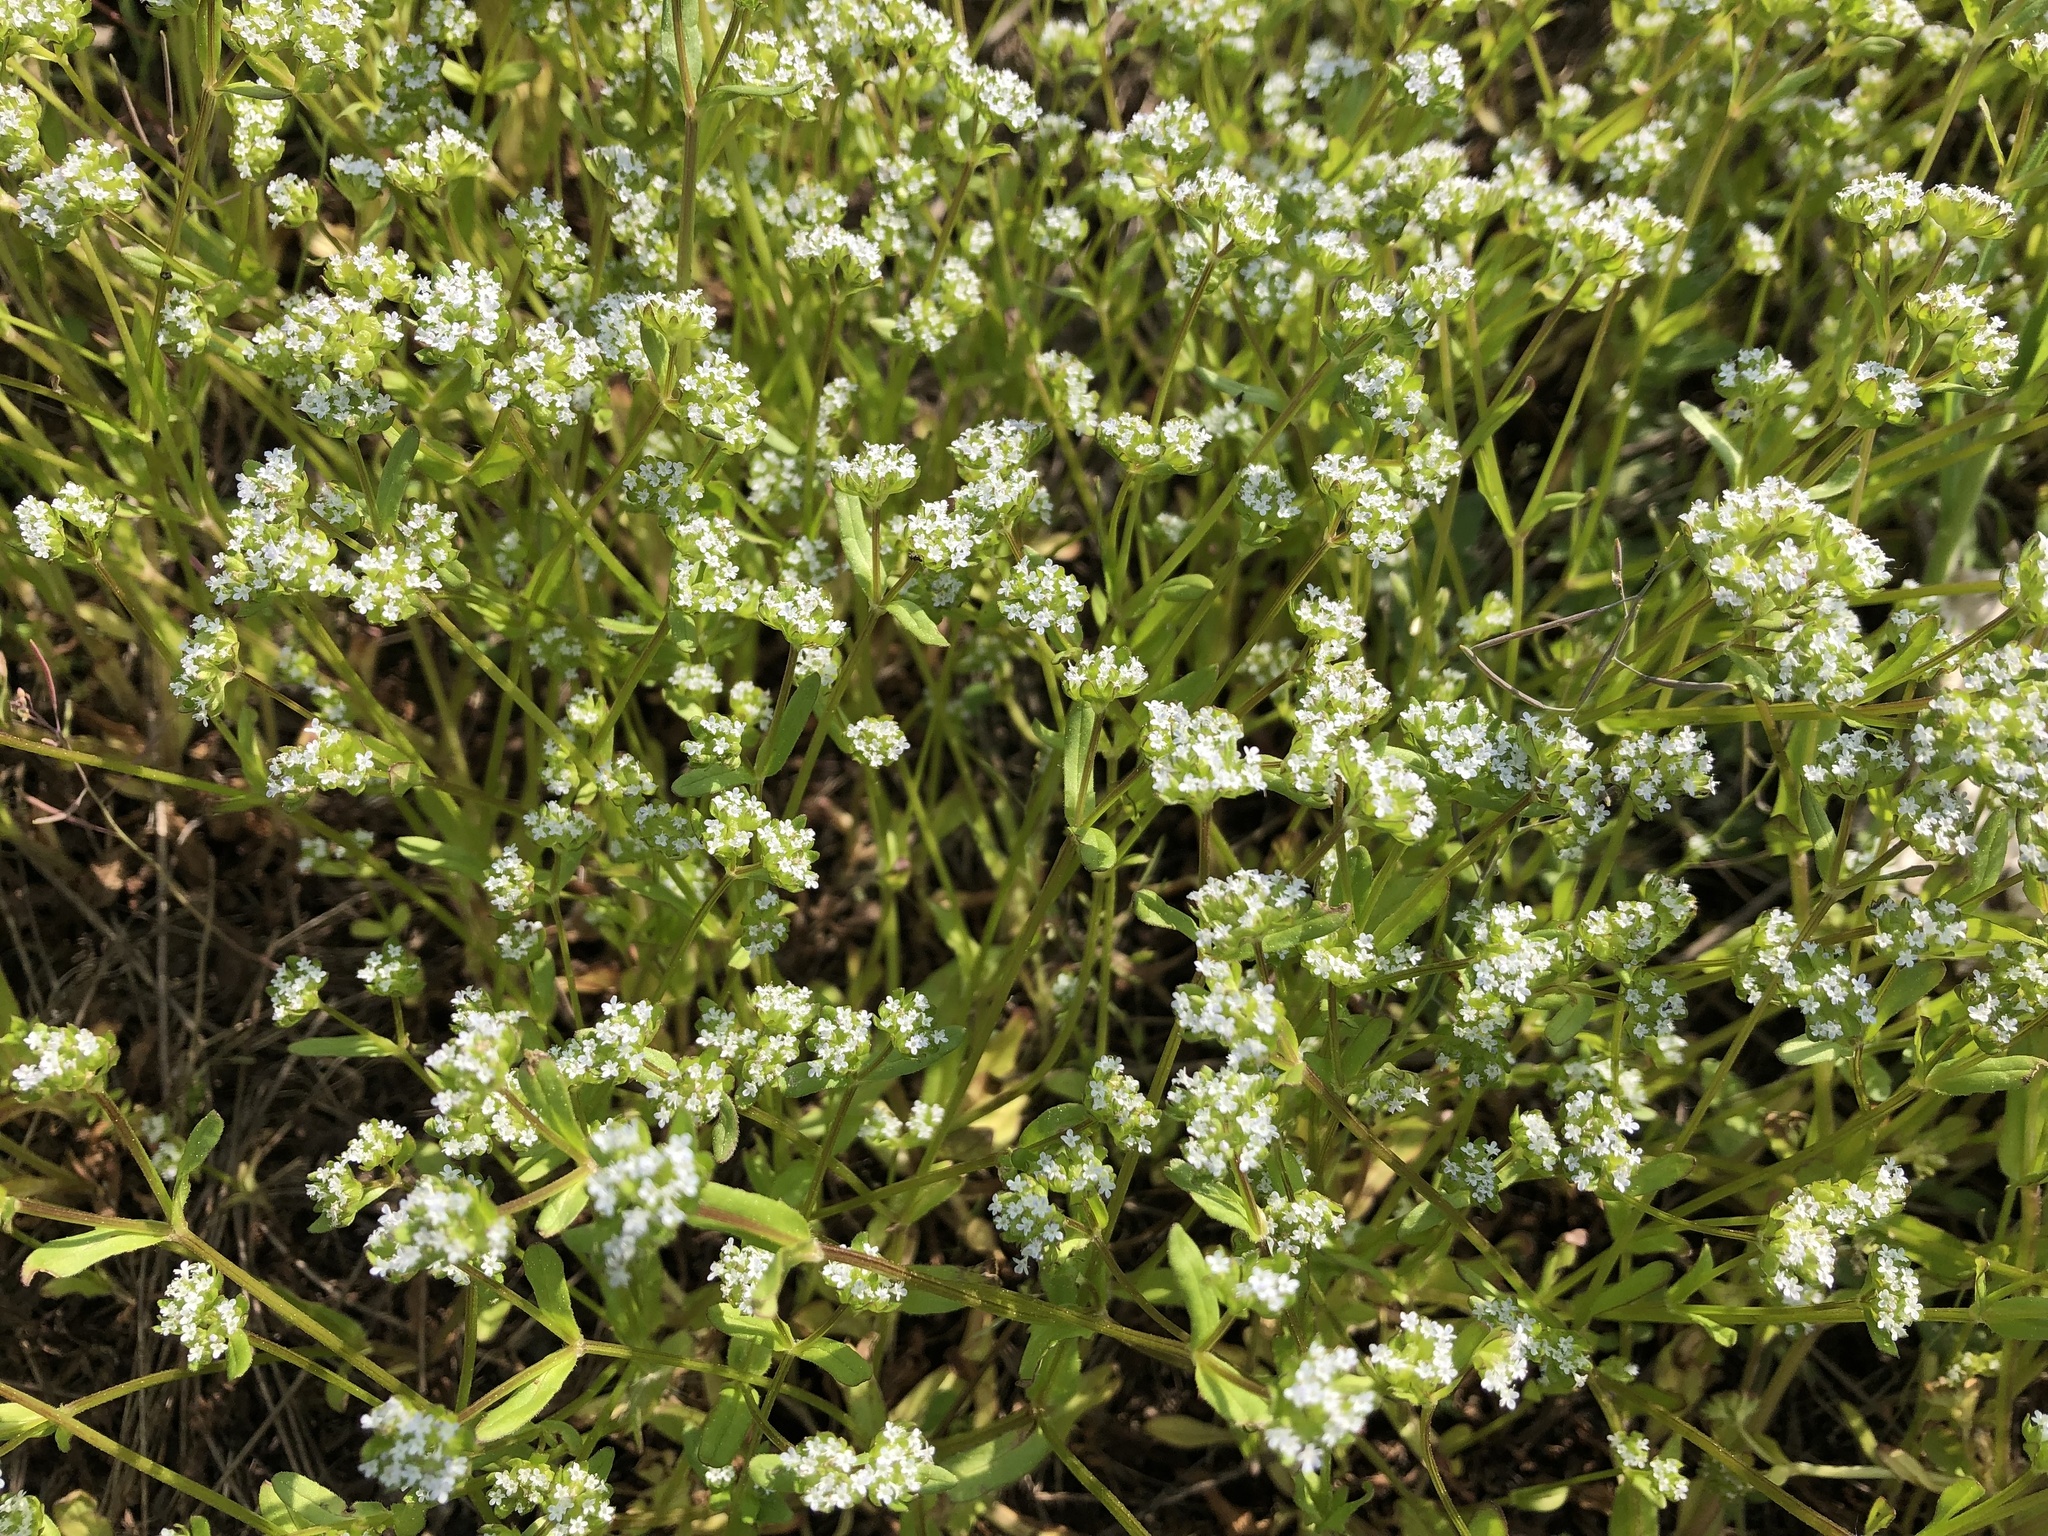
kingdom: Plantae
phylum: Tracheophyta
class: Magnoliopsida
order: Dipsacales
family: Caprifoliaceae
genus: Valerianella
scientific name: Valerianella locusta
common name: Common cornsalad
